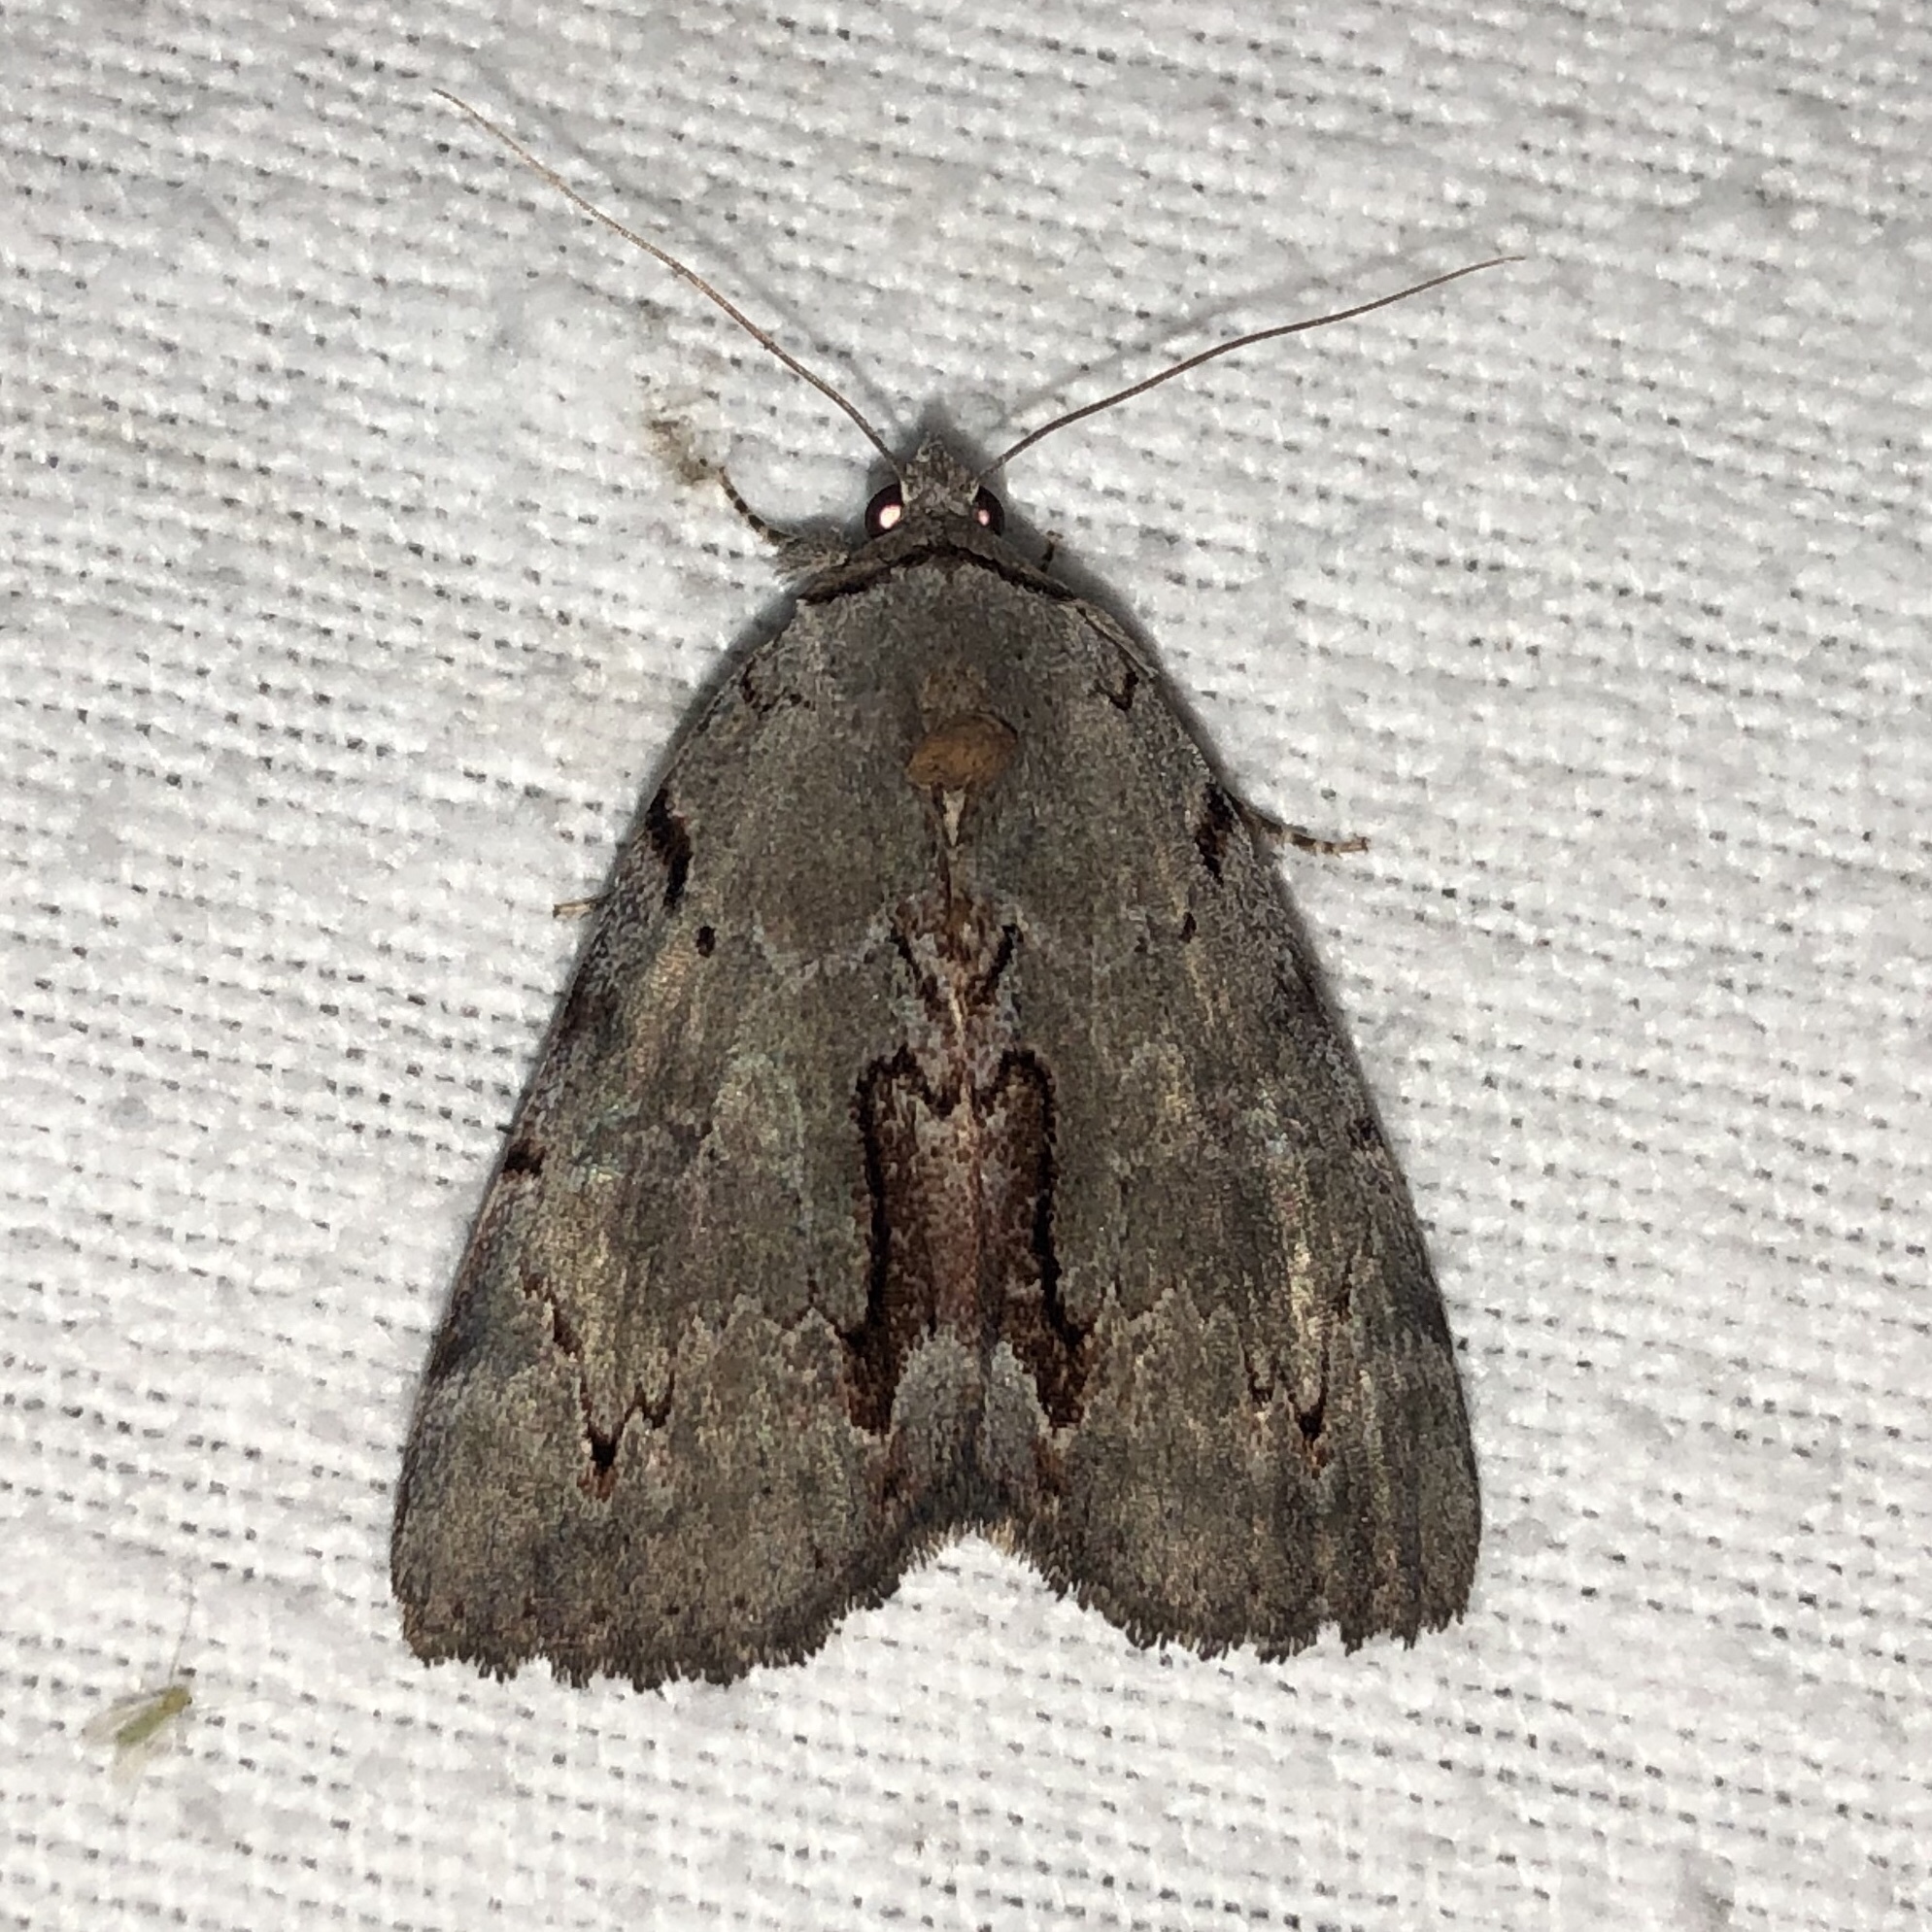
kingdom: Animalia
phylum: Arthropoda
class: Insecta
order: Lepidoptera
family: Erebidae
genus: Catocala
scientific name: Catocala grynea
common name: Woody underwing
